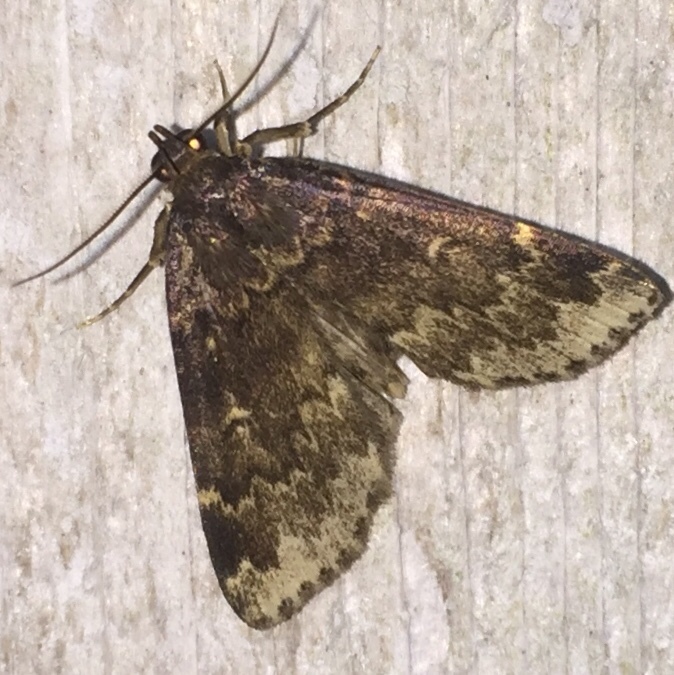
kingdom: Animalia
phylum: Arthropoda
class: Insecta
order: Lepidoptera
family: Erebidae
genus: Idia
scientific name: Idia lubricalis
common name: Twin-striped tabby
